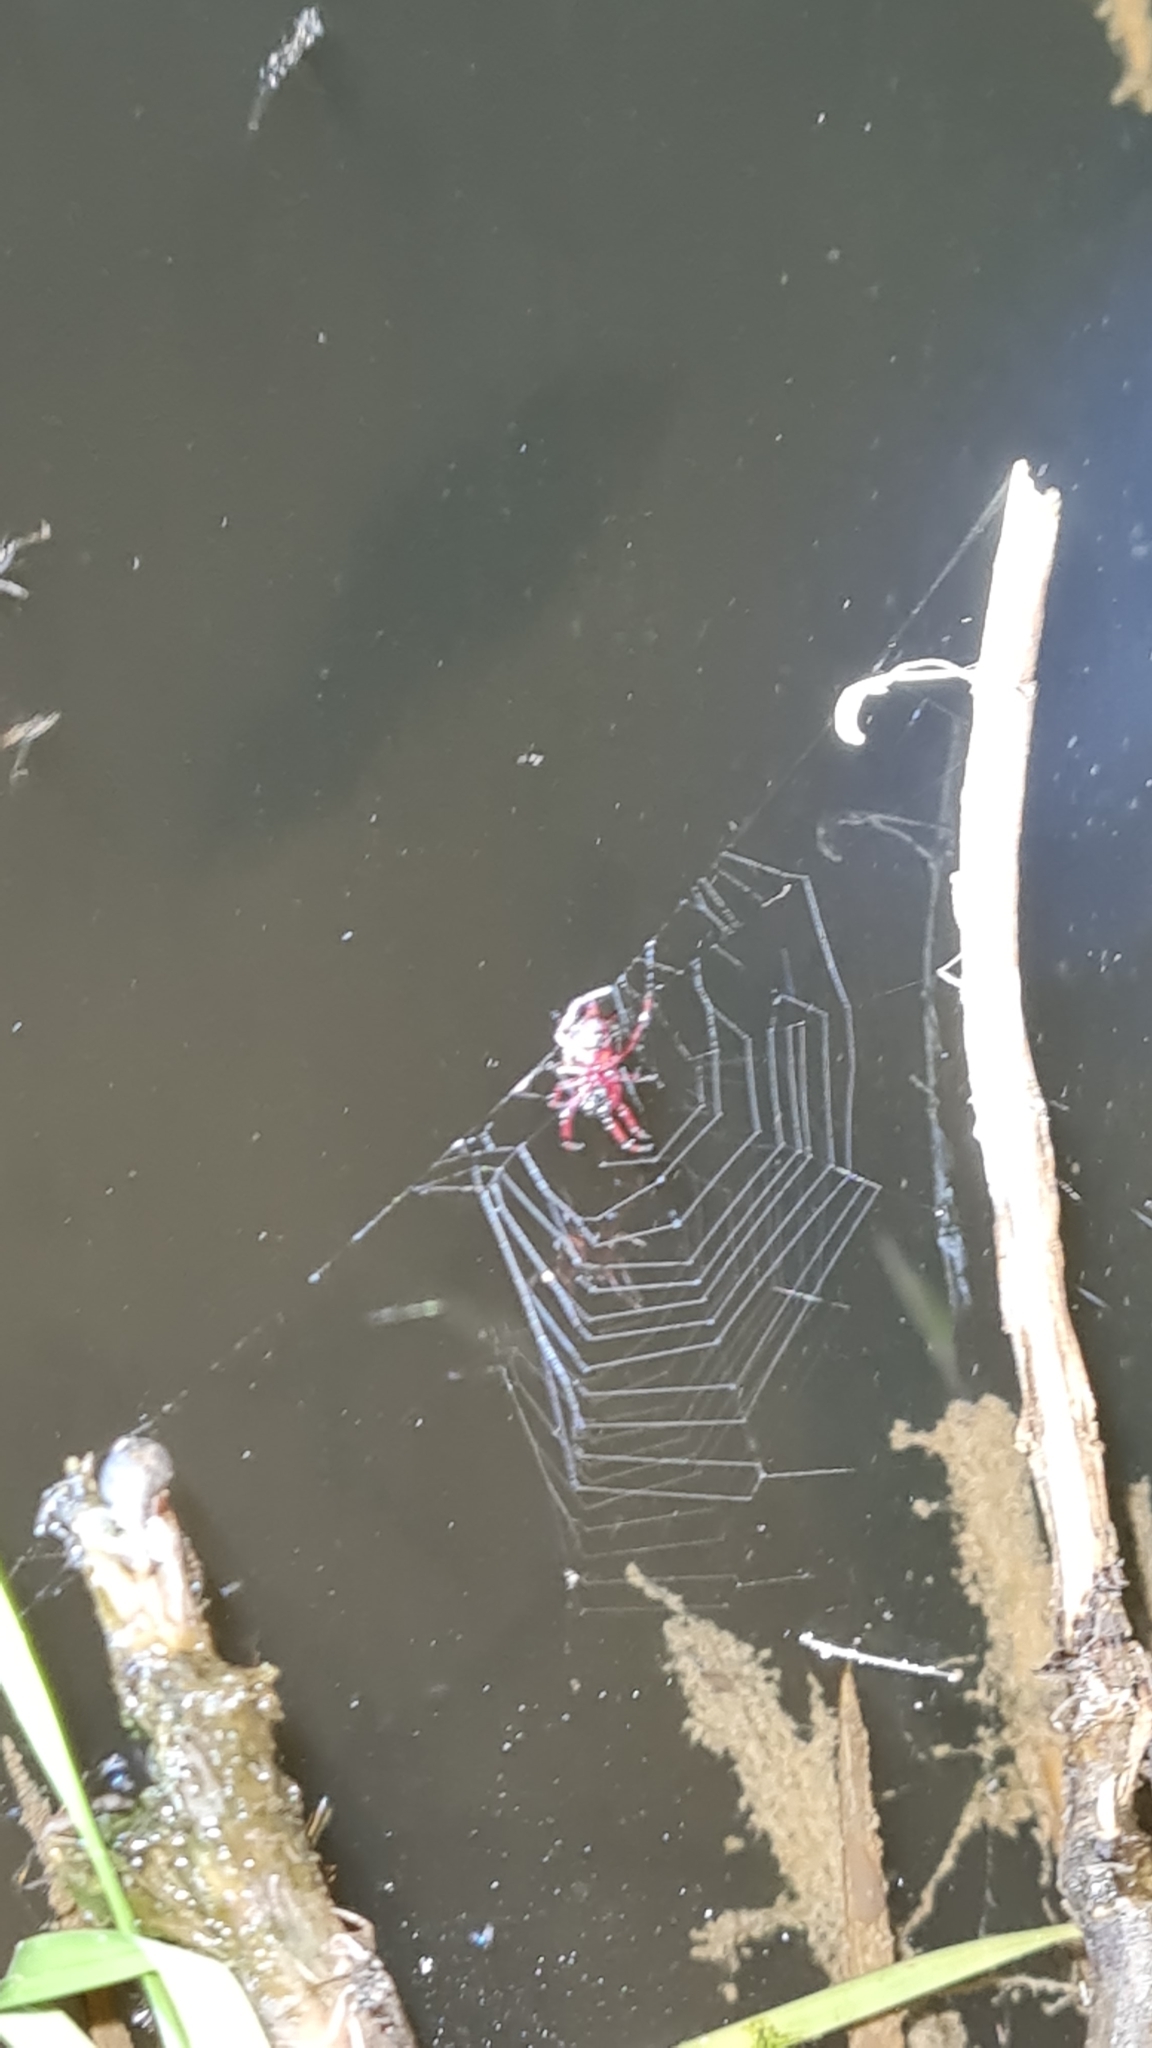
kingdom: Animalia
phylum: Arthropoda
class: Arachnida
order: Araneae
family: Araneidae
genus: Actinosoma
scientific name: Actinosoma pentacanthum
